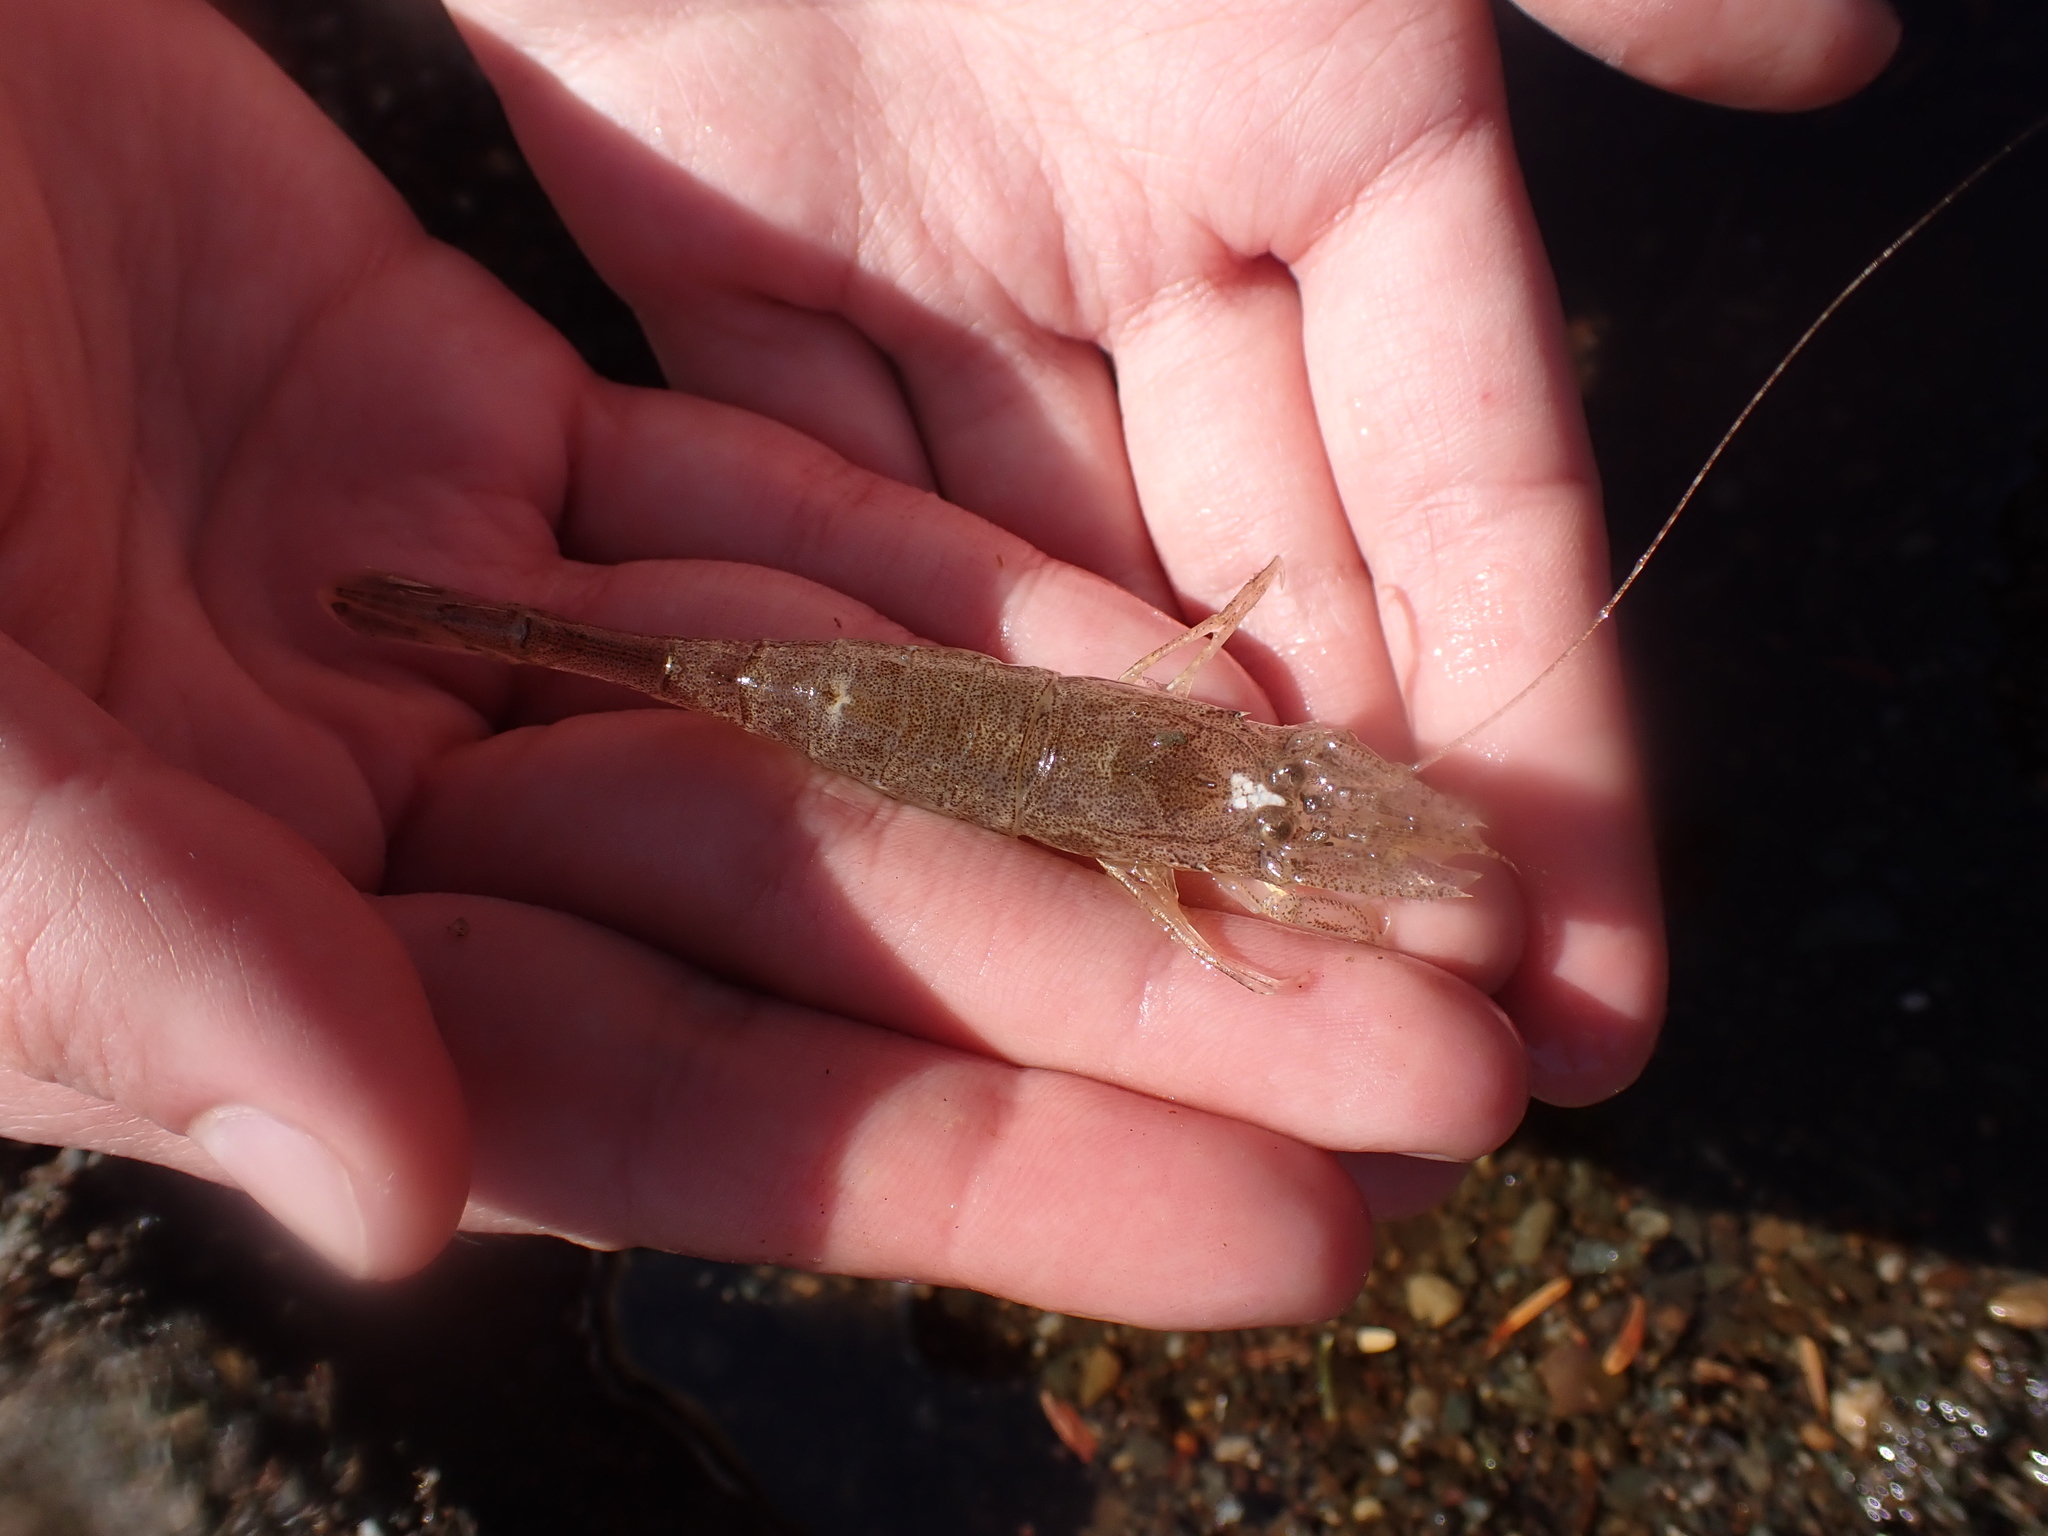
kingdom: Animalia
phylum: Arthropoda
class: Malacostraca
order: Decapoda
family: Crangonidae
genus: Crangon
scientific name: Crangon septemspinosa
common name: Bail shrimp
